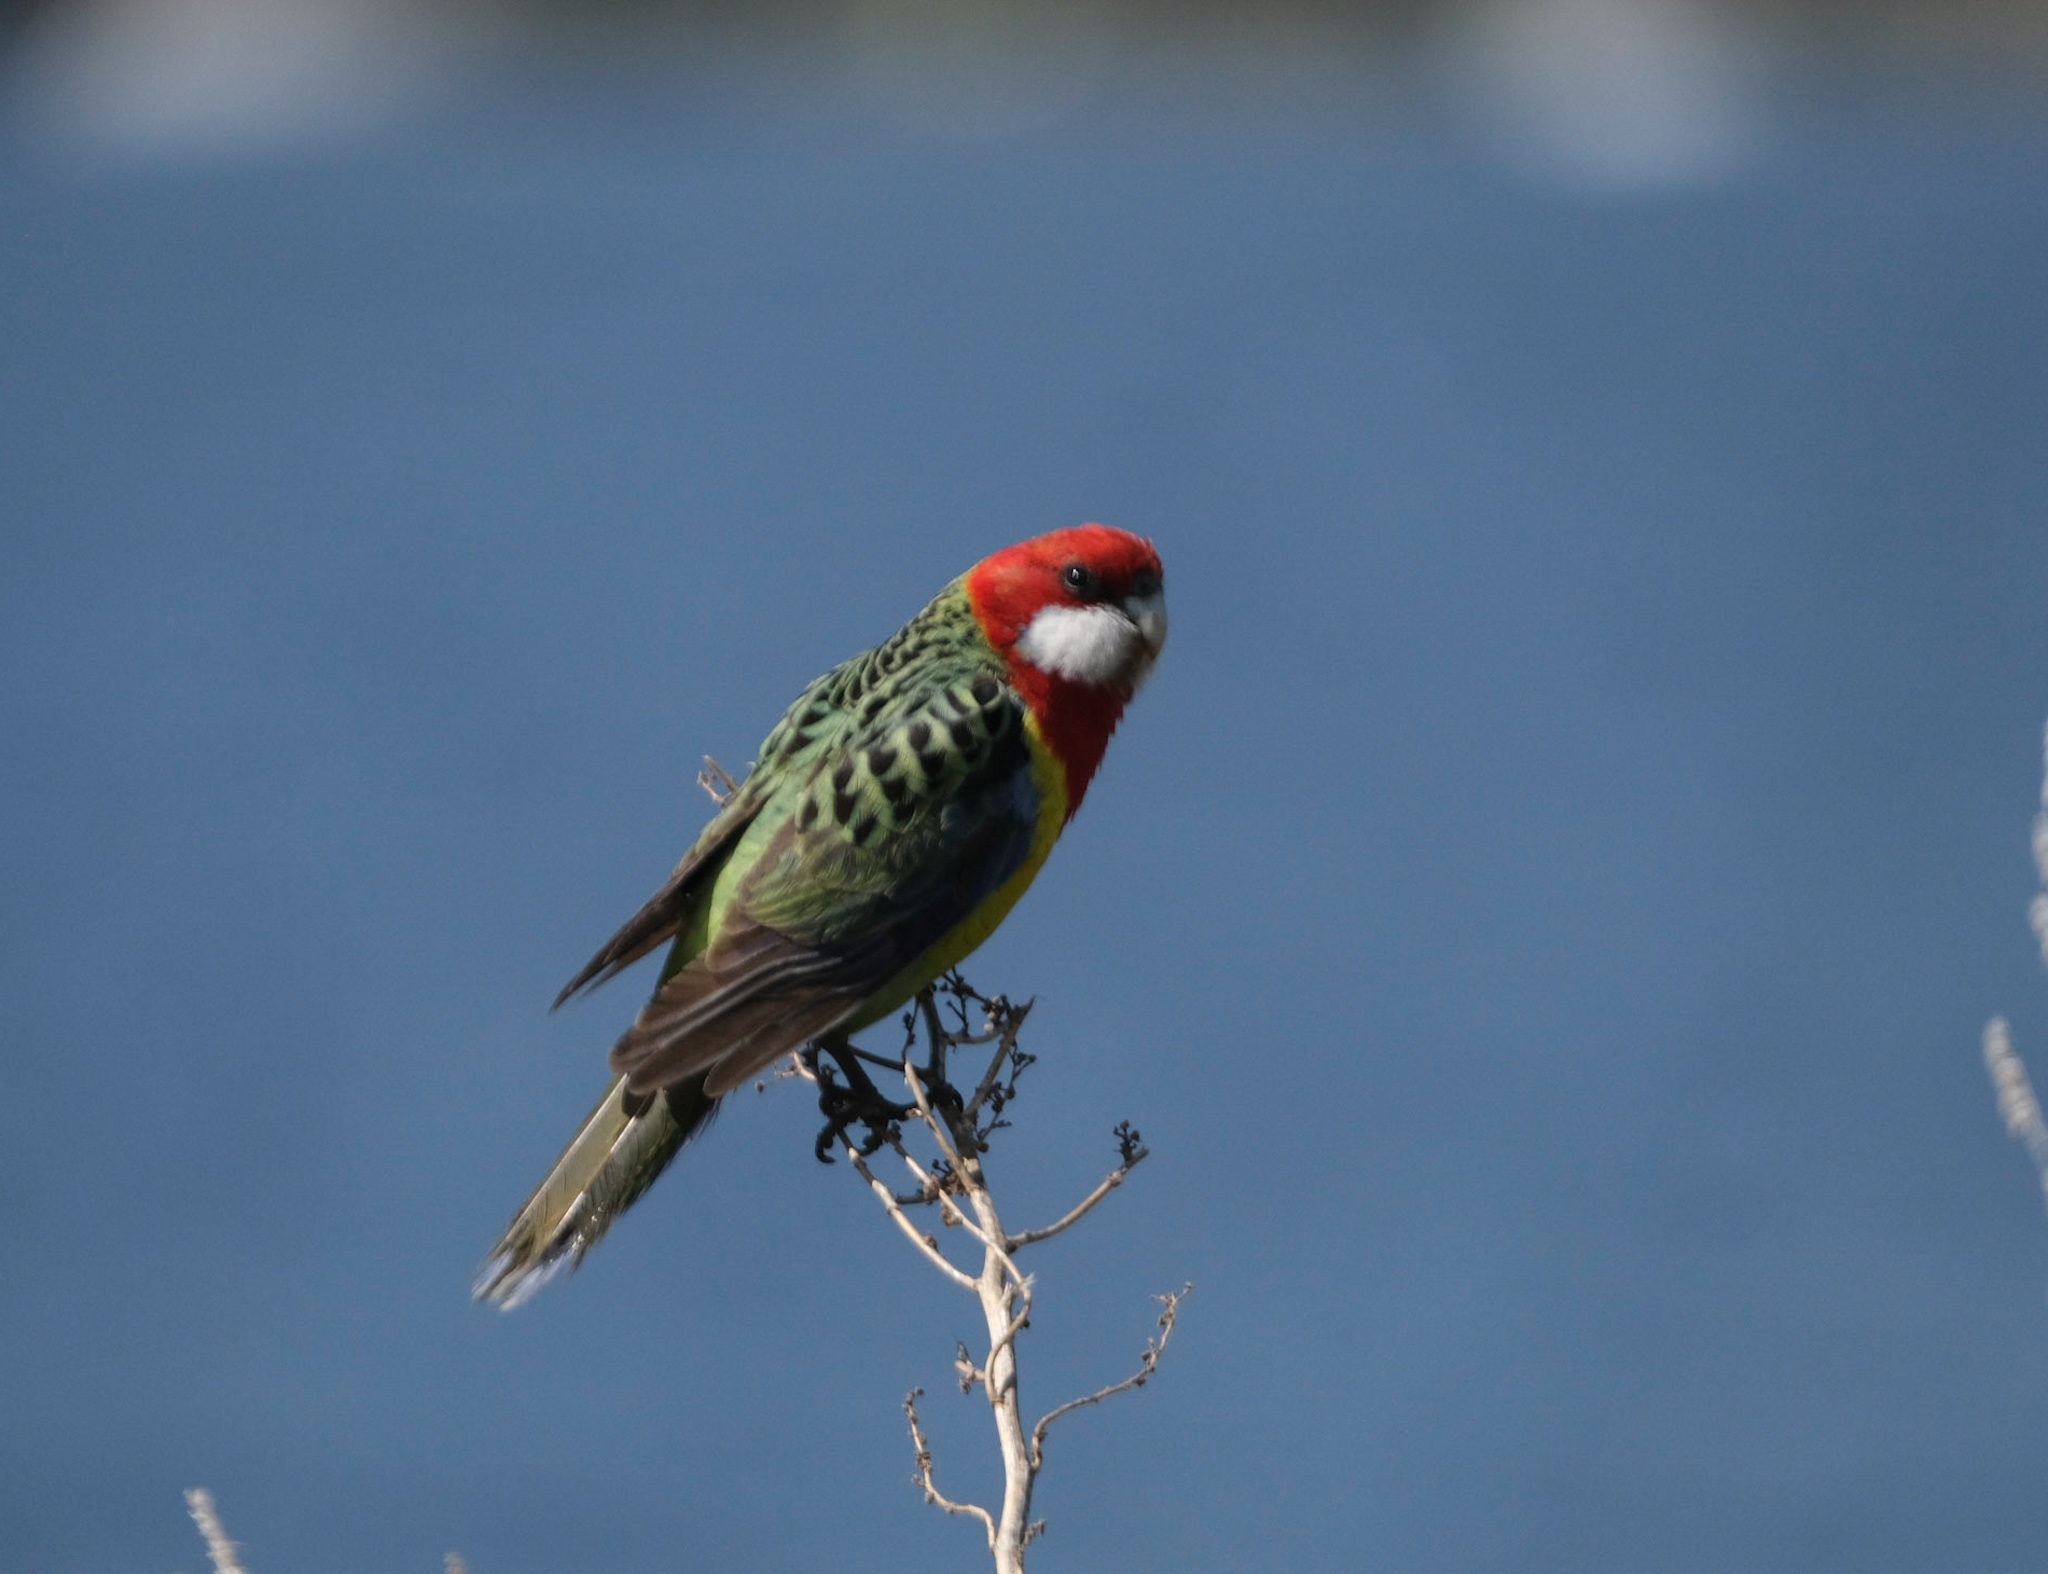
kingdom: Animalia
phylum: Chordata
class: Aves
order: Psittaciformes
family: Psittacidae
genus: Platycercus
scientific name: Platycercus eximius
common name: Eastern rosella
